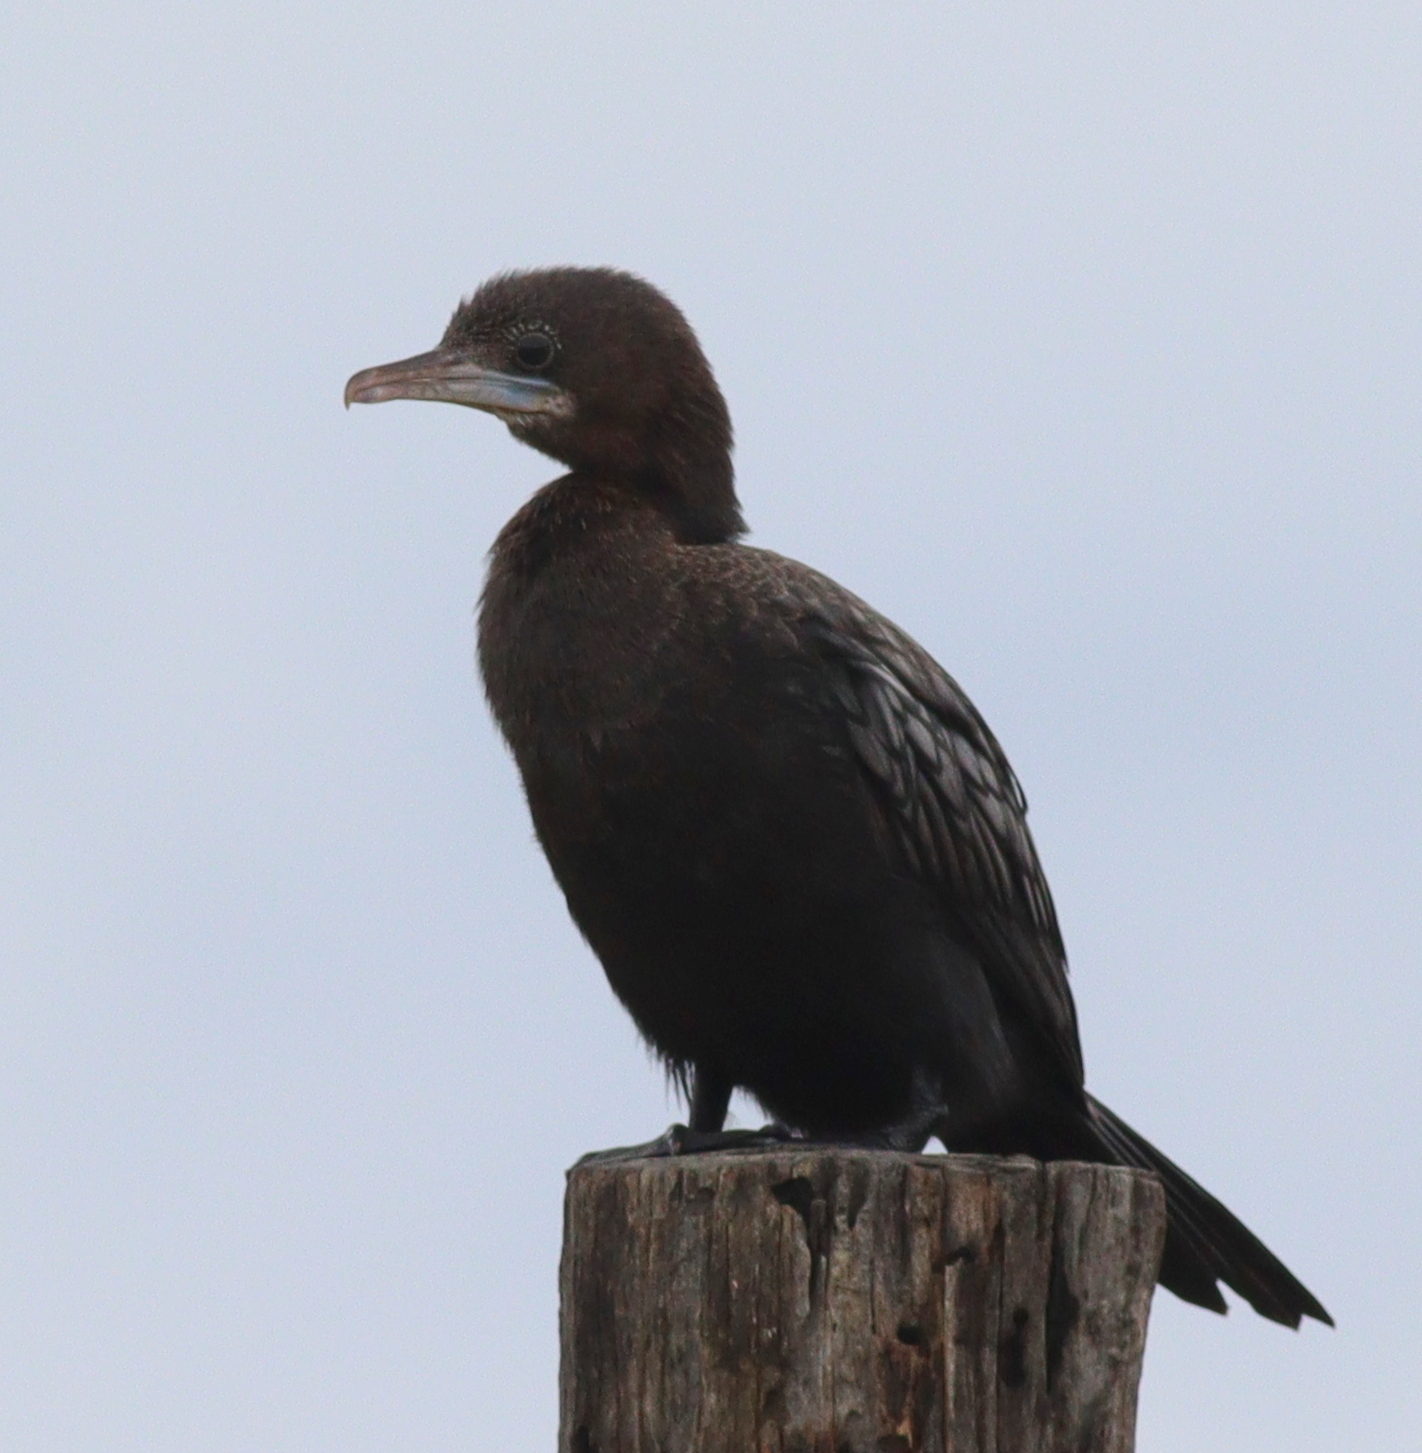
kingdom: Animalia
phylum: Chordata
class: Aves
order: Suliformes
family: Phalacrocoracidae
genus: Microcarbo
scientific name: Microcarbo niger
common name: Little cormorant
